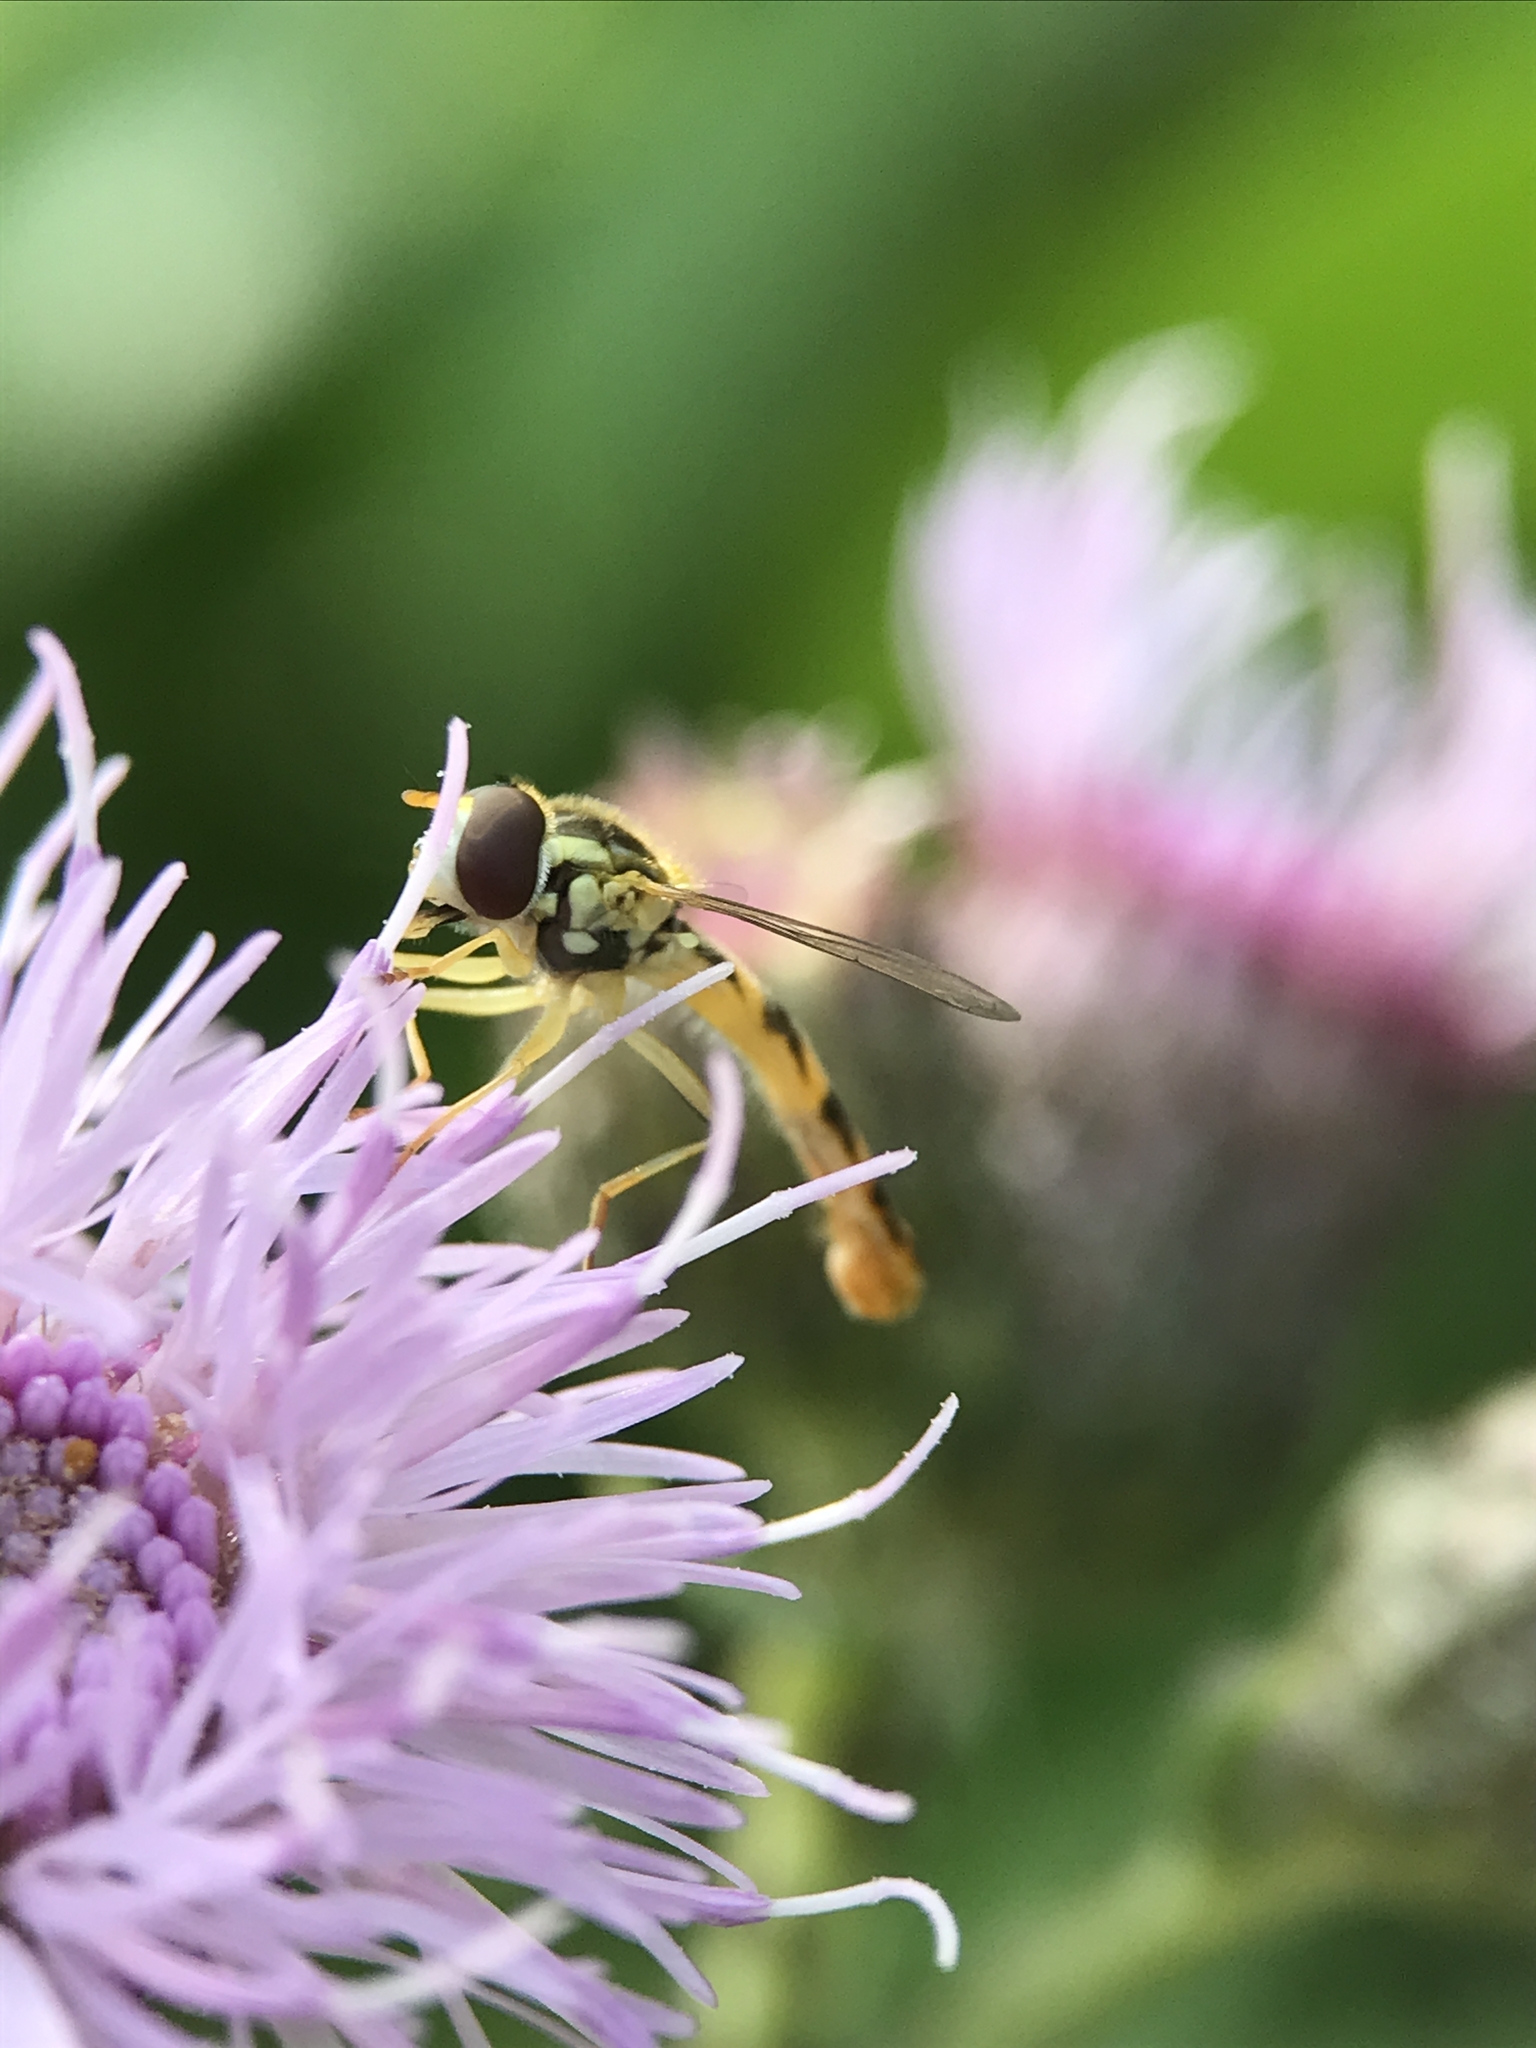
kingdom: Animalia
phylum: Arthropoda
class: Insecta
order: Diptera
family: Syrphidae
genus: Sphaerophoria
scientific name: Sphaerophoria scripta
